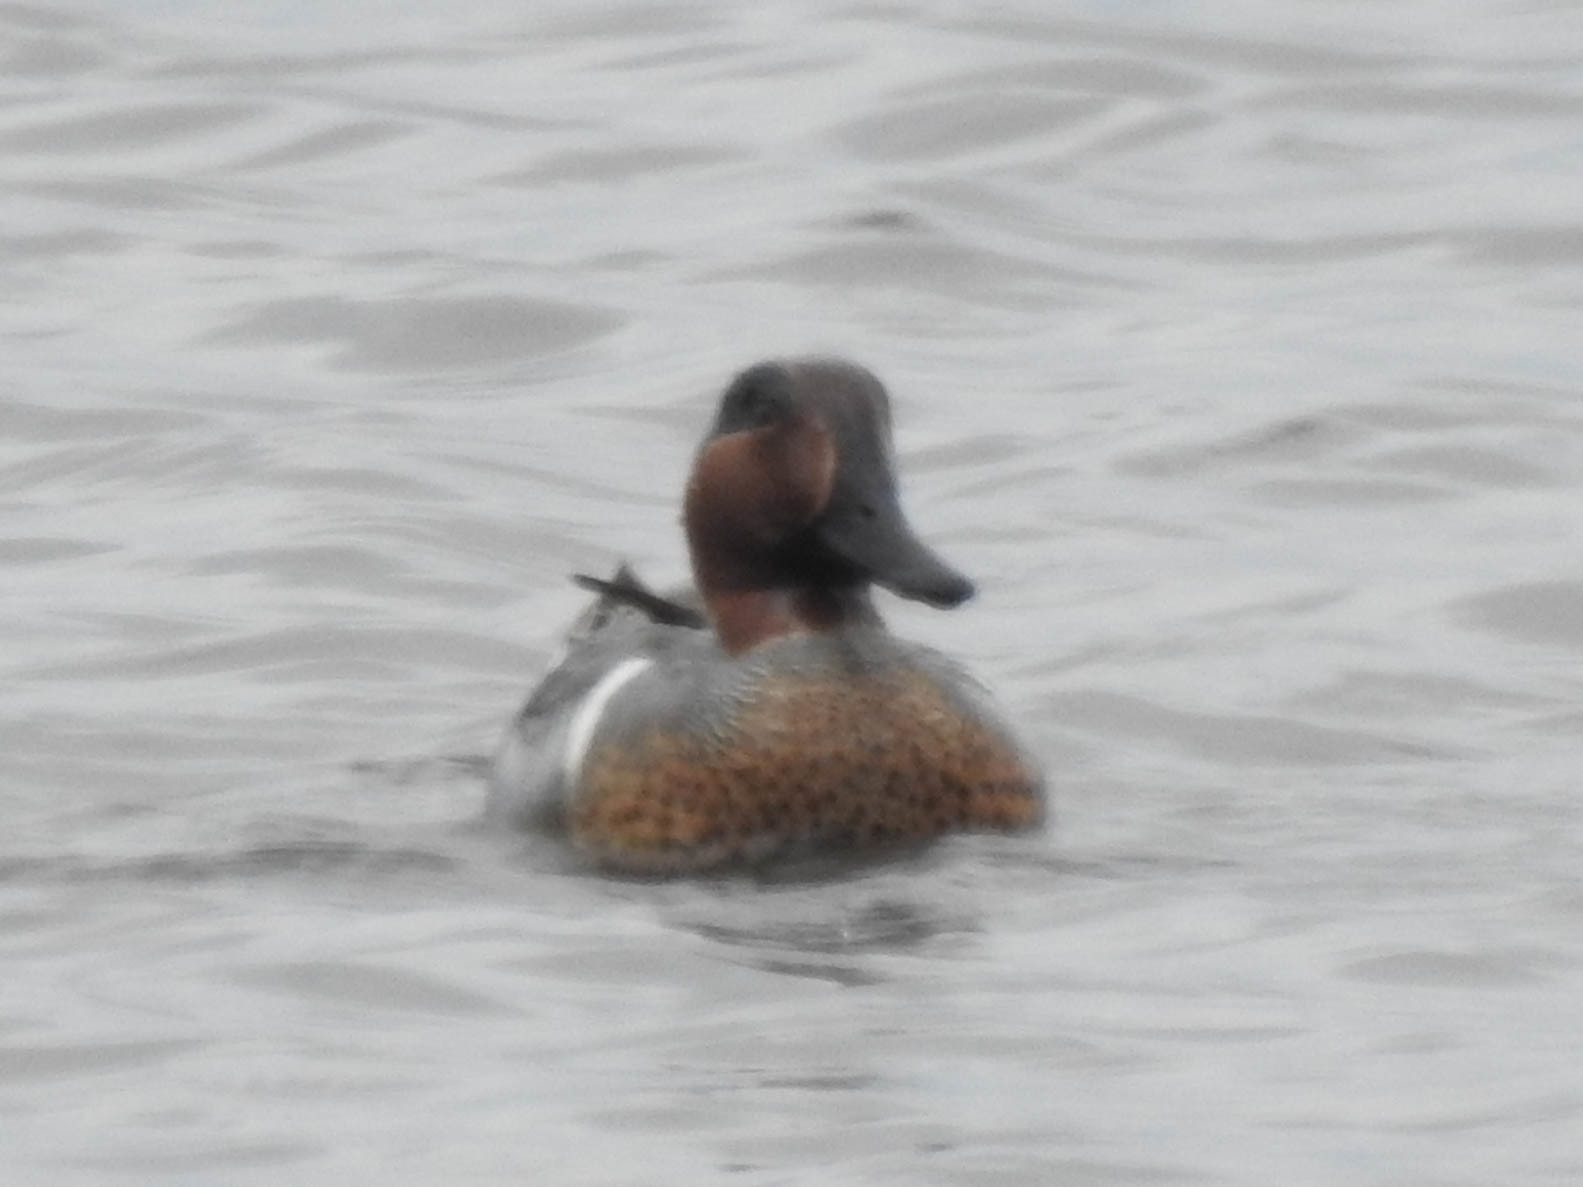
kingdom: Animalia
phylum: Chordata
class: Aves
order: Anseriformes
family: Anatidae
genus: Anas
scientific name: Anas crecca
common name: Eurasian teal
